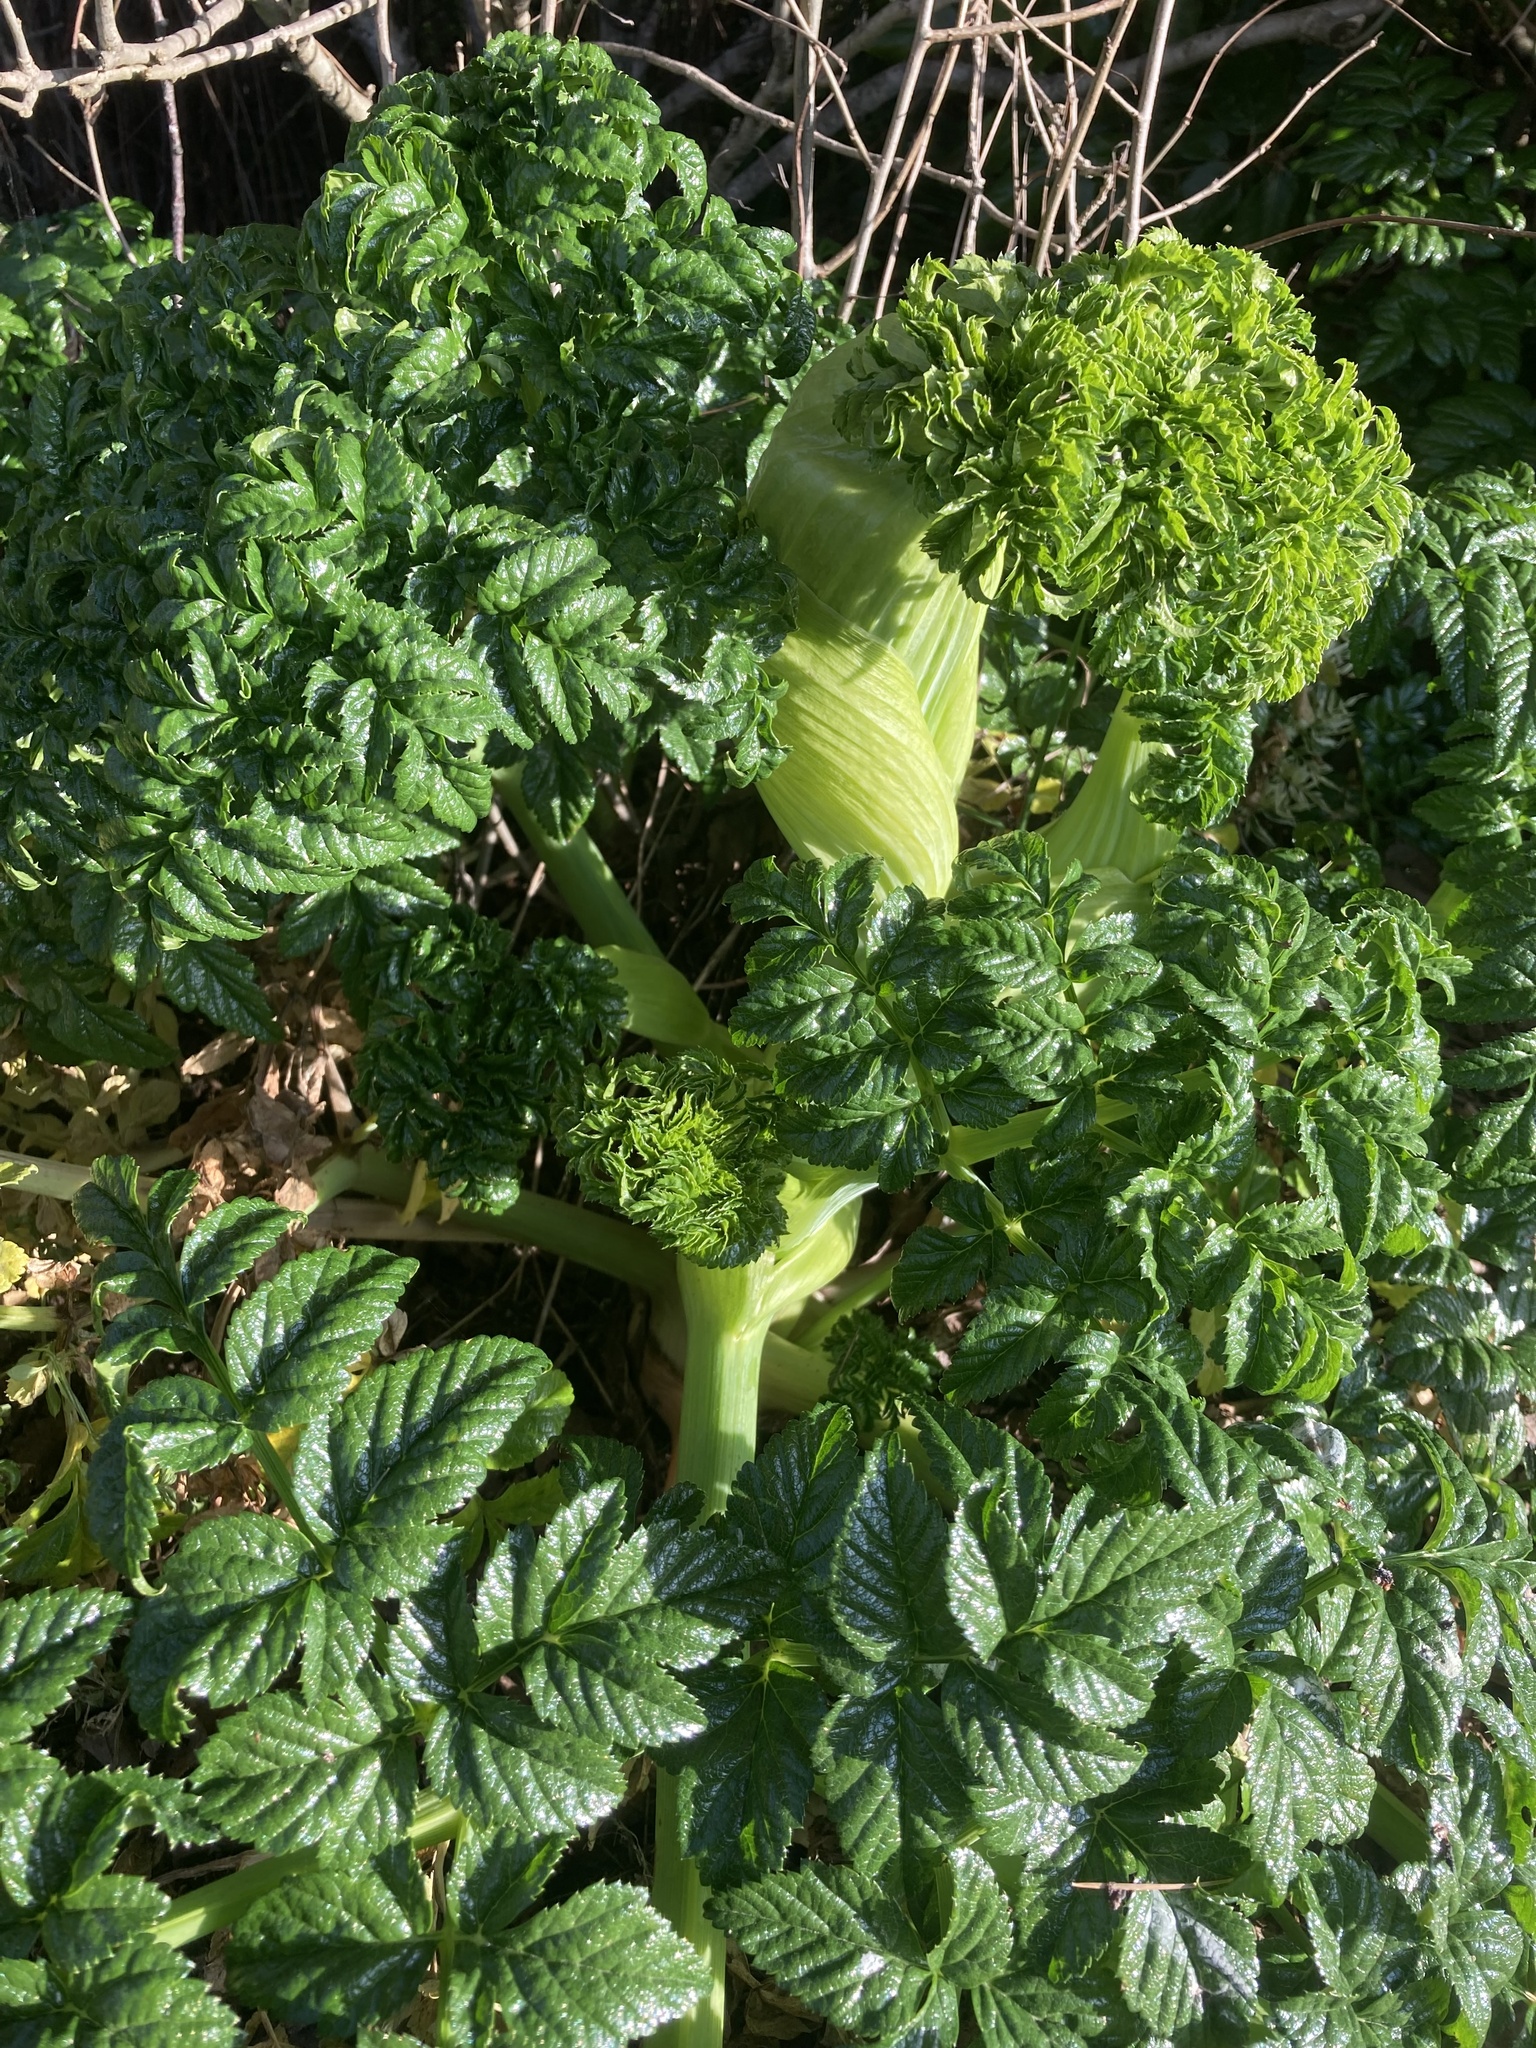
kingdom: Plantae
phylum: Tracheophyta
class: Magnoliopsida
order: Apiales
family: Apiaceae
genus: Angelica
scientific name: Angelica pachycarpa
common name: Portuguese angelica
